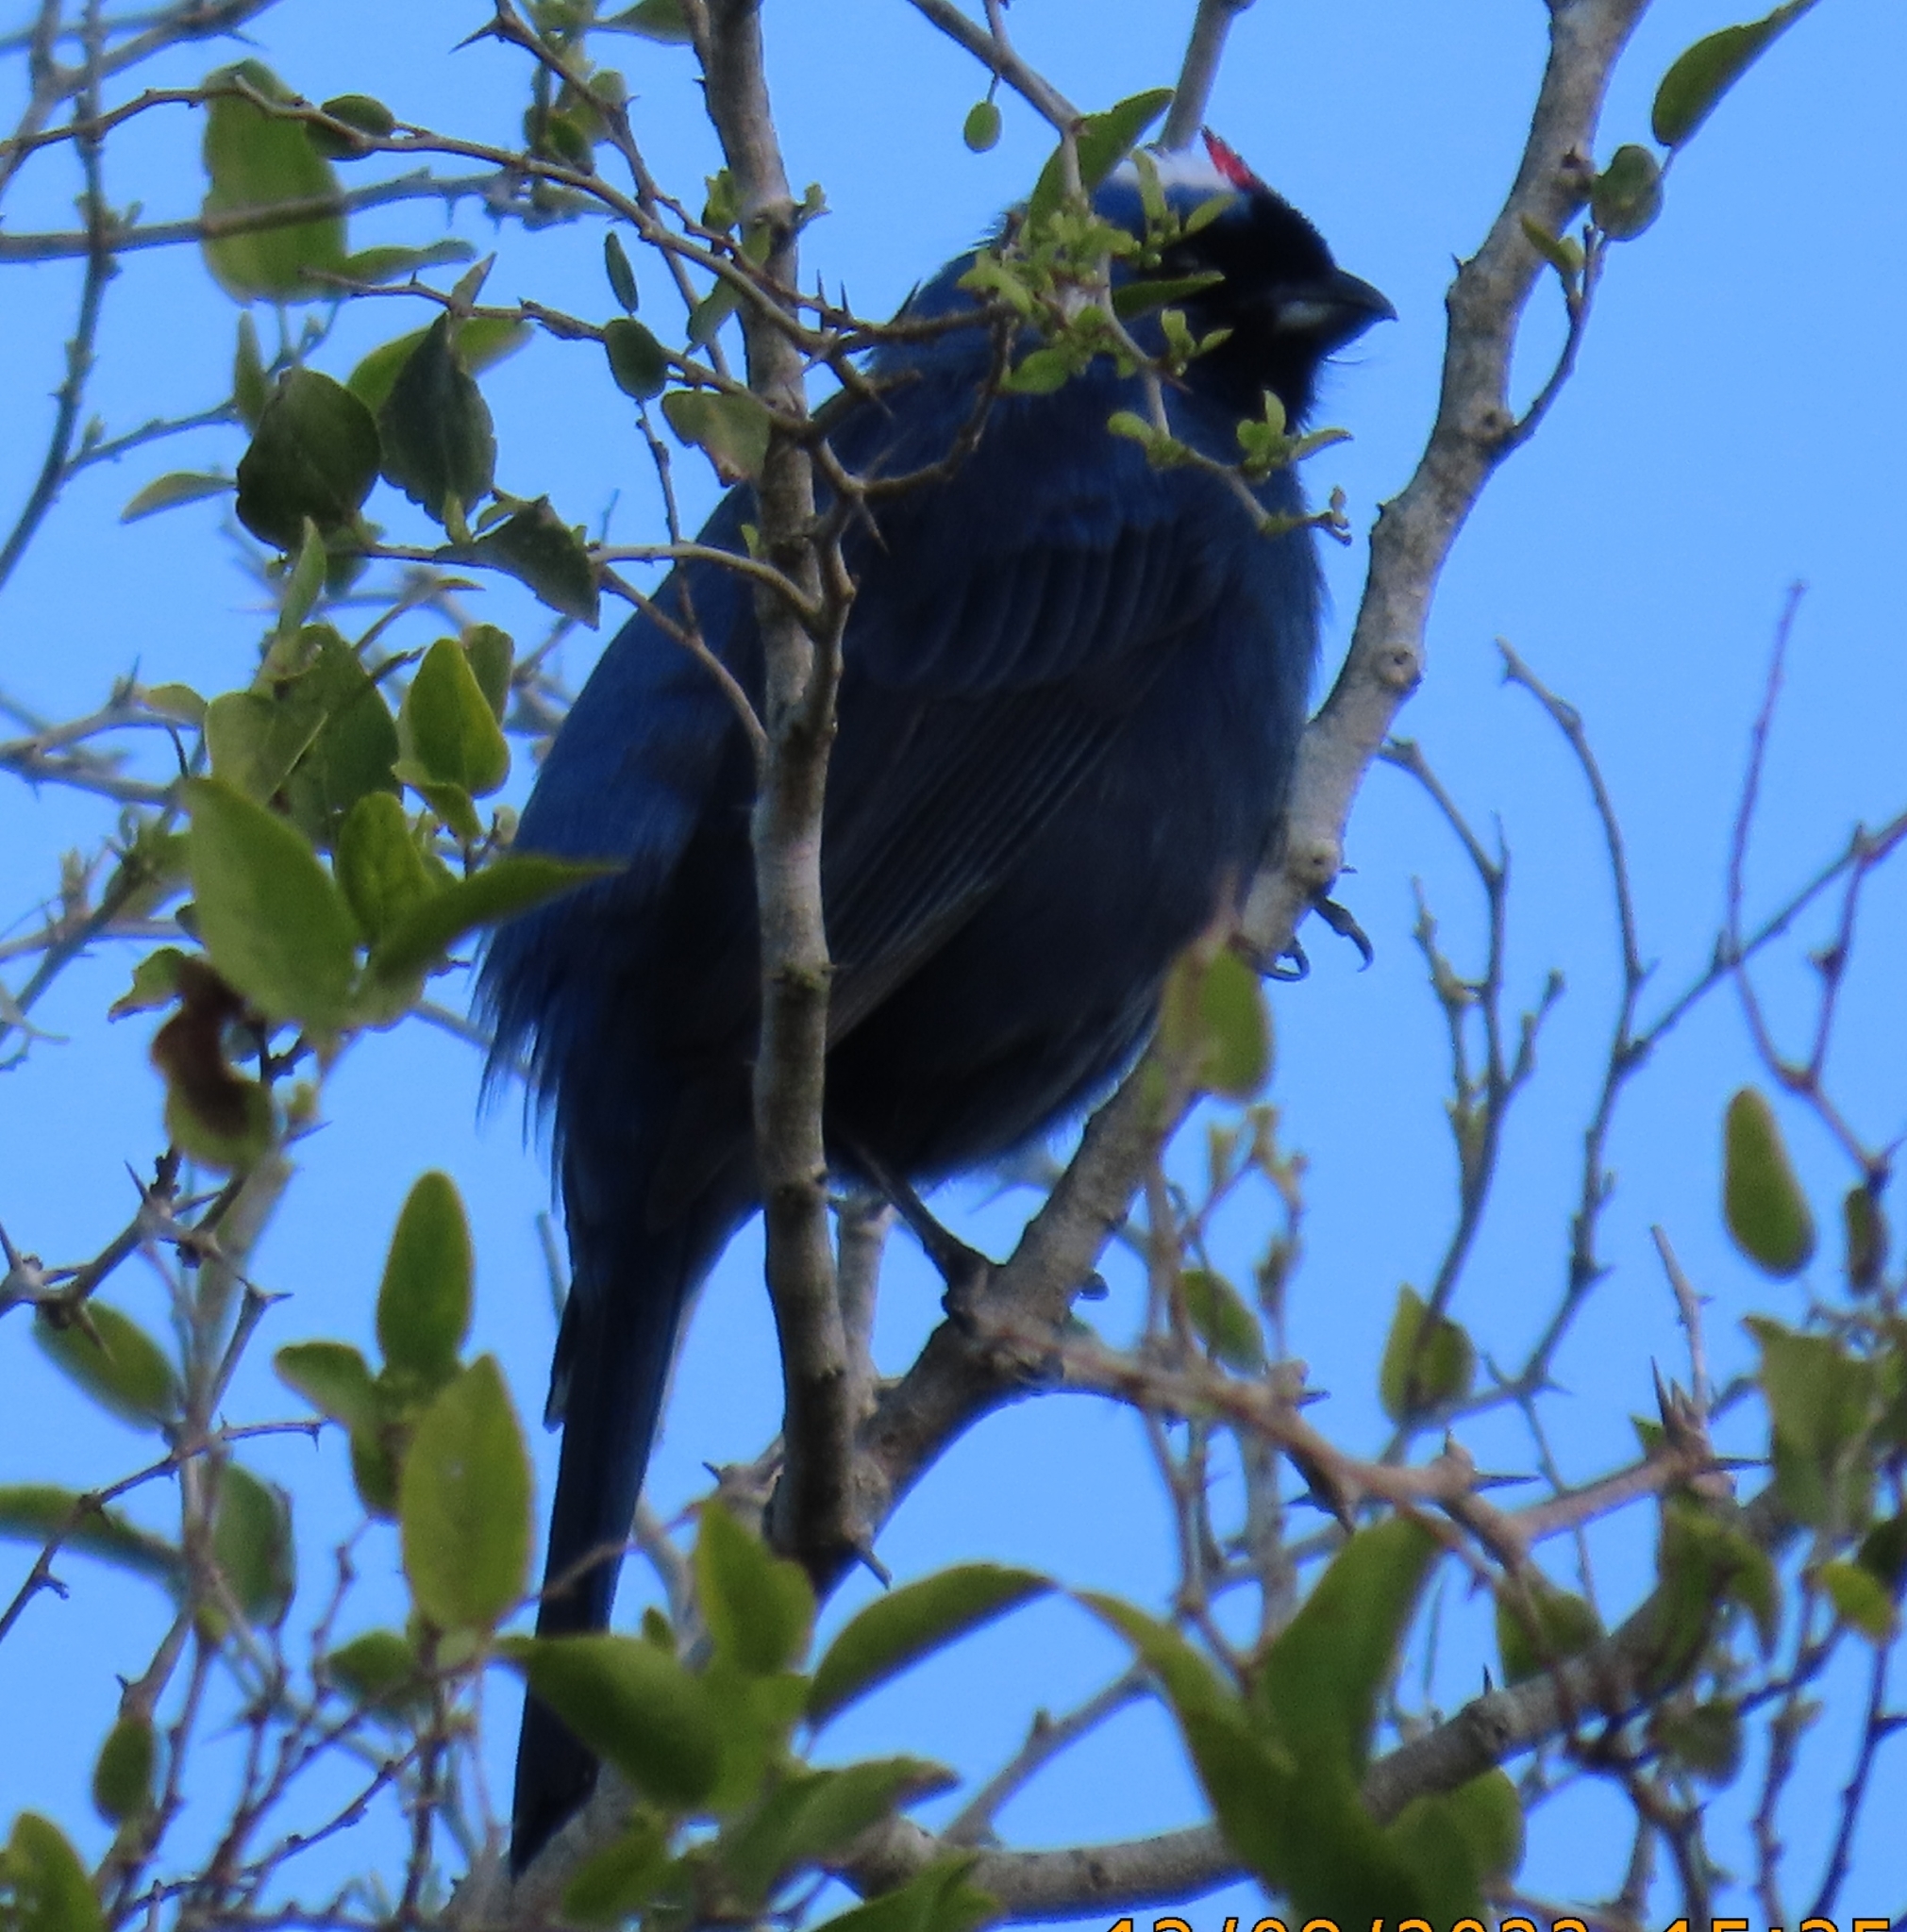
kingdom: Animalia
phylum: Chordata
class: Aves
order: Passeriformes
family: Thraupidae
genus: Stephanophorus
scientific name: Stephanophorus diadematus
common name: Diademed tanager
